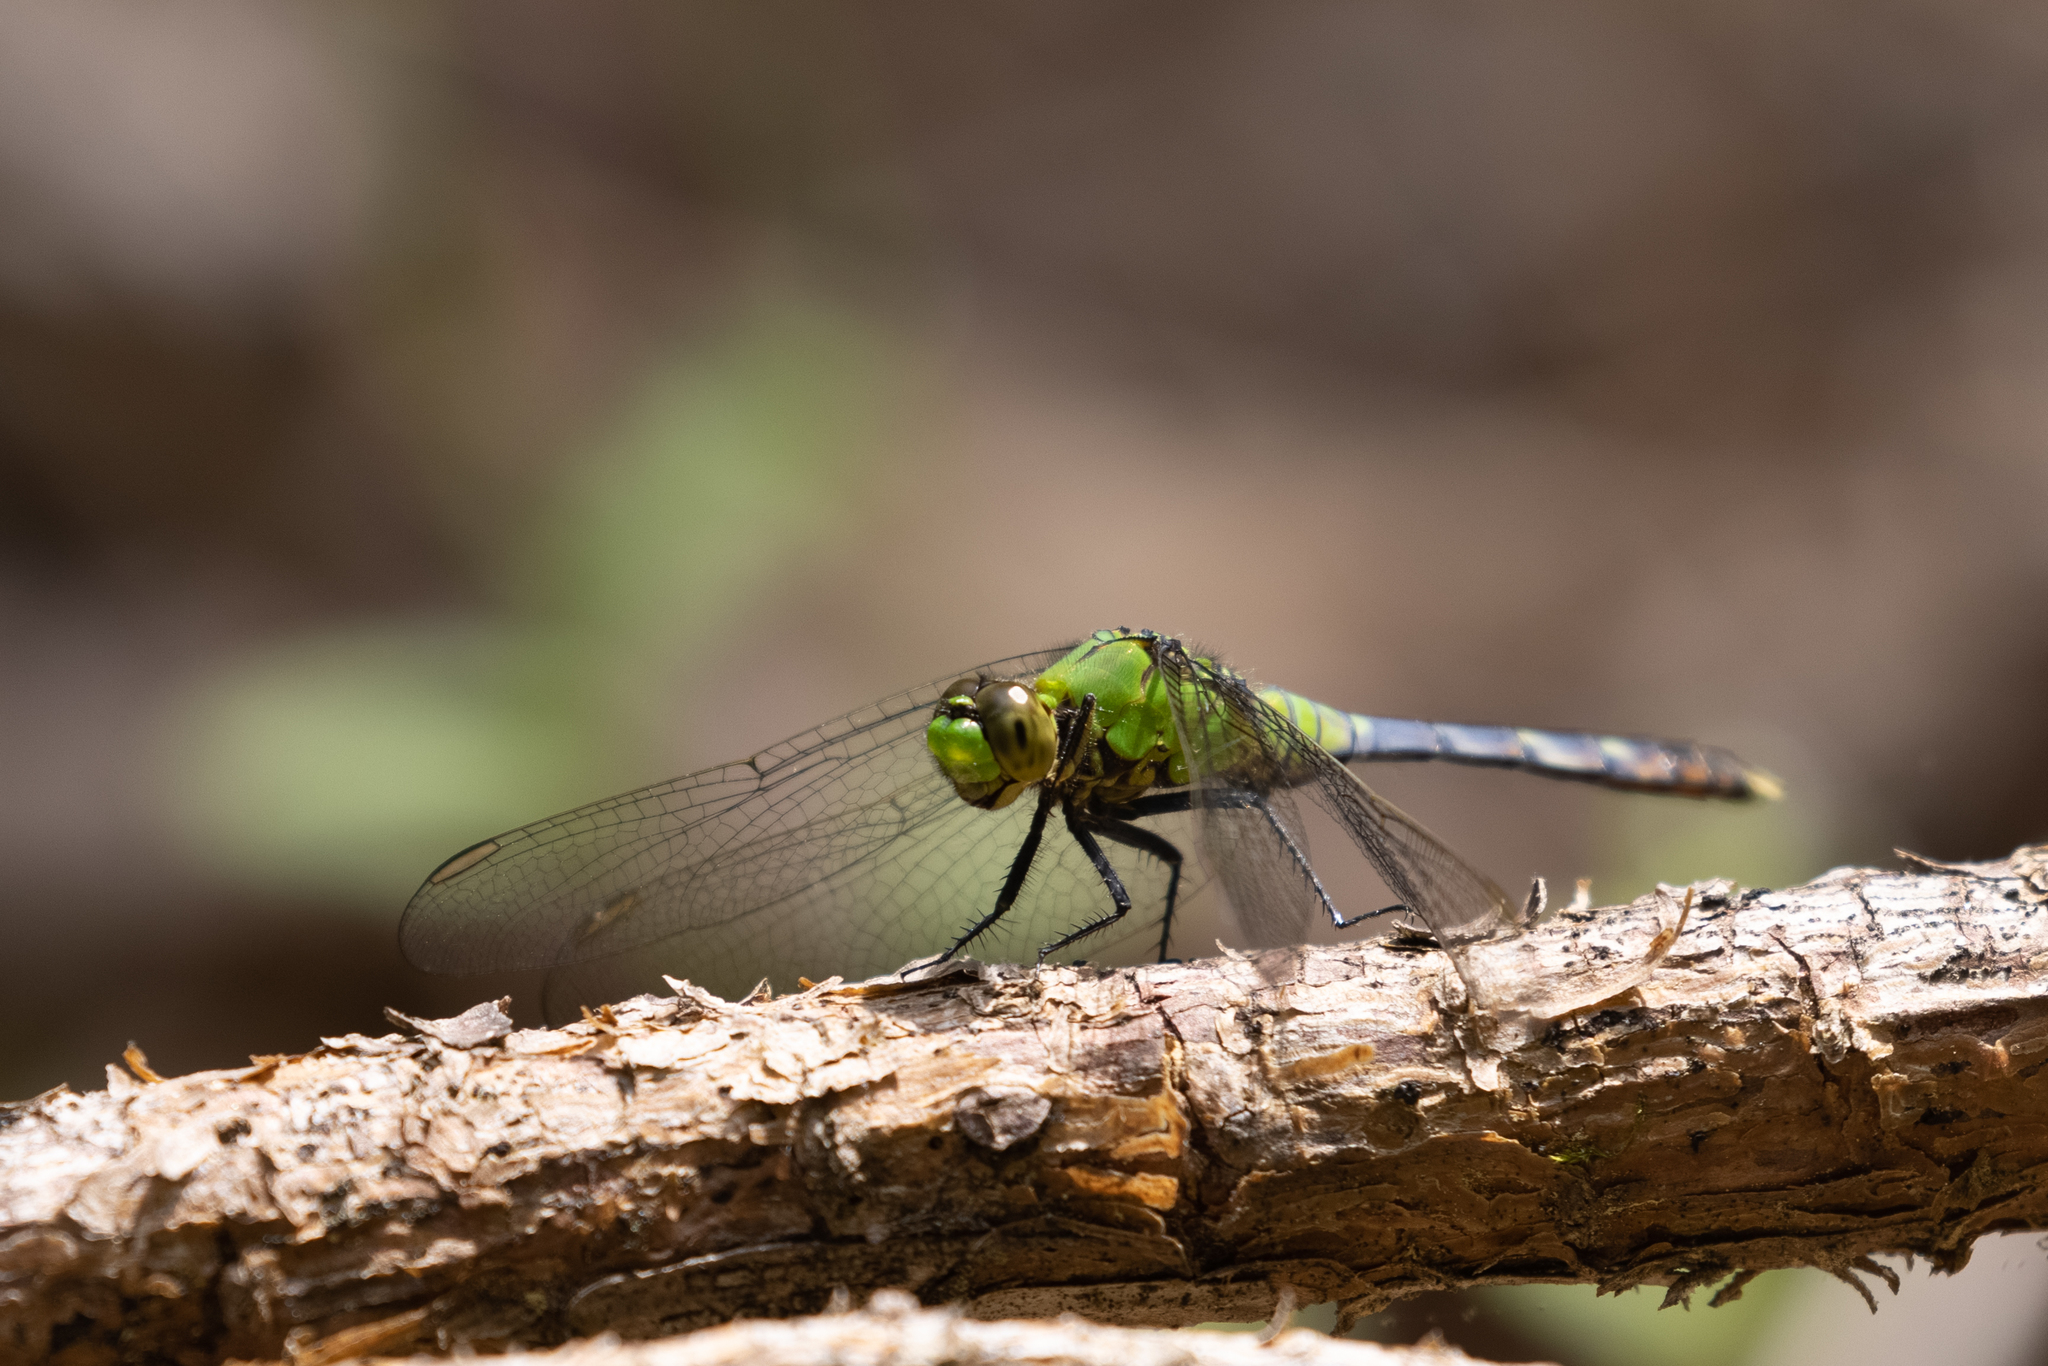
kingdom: Animalia
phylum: Arthropoda
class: Insecta
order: Odonata
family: Libellulidae
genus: Erythemis
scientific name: Erythemis simplicicollis
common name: Eastern pondhawk
